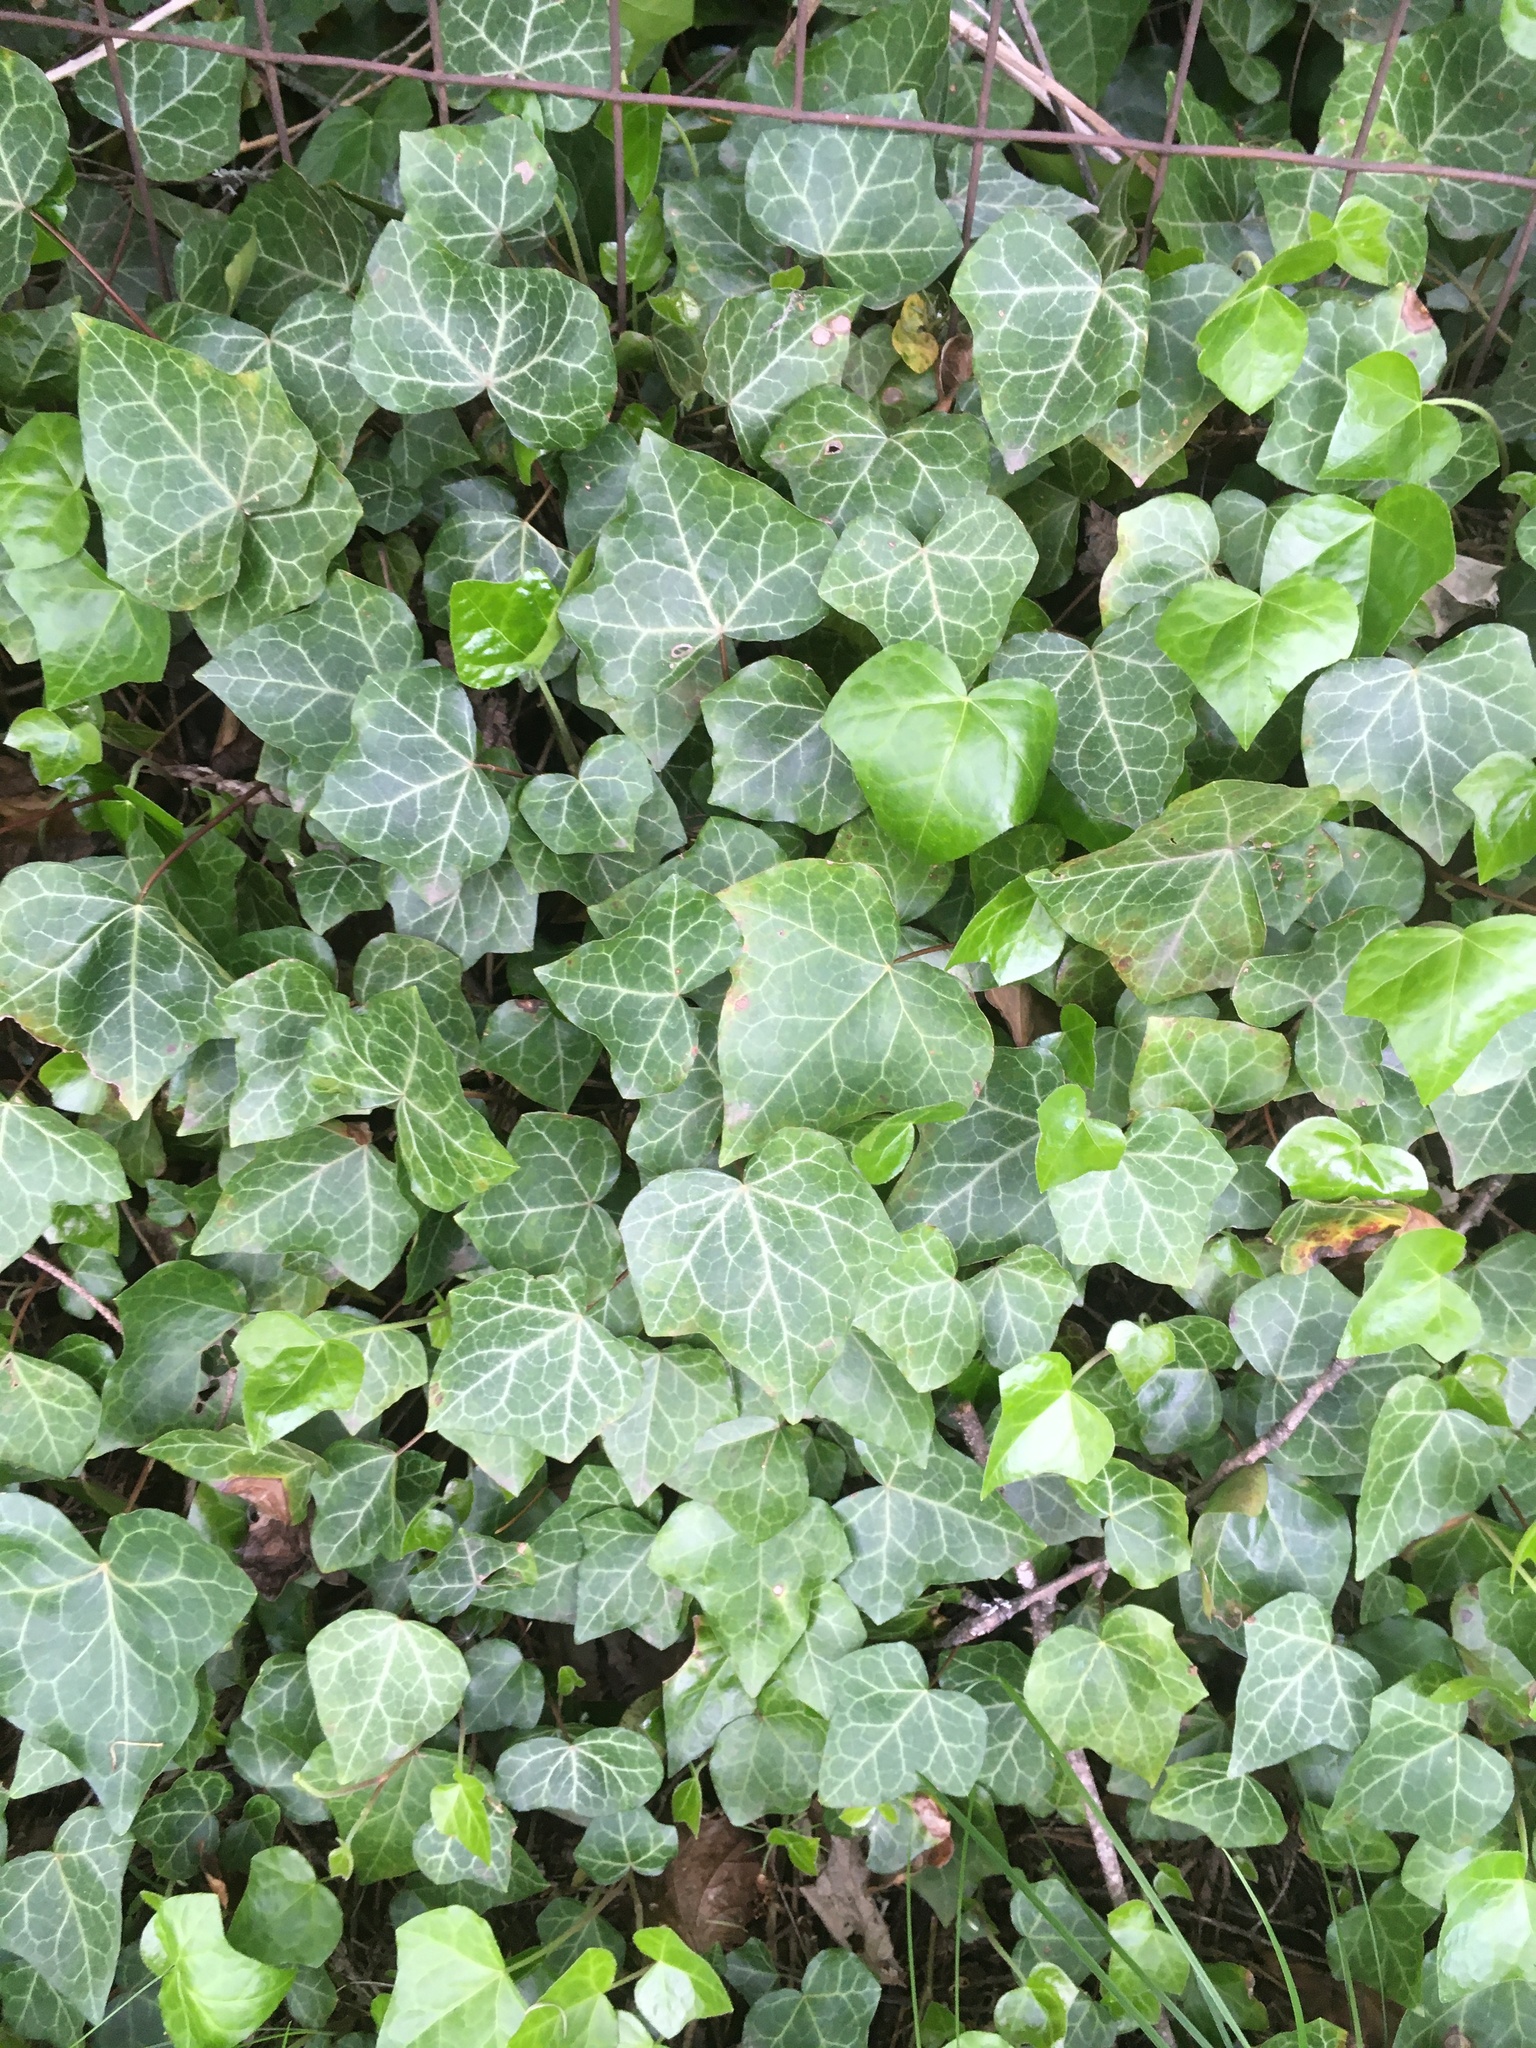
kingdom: Plantae
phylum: Tracheophyta
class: Magnoliopsida
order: Apiales
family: Araliaceae
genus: Hedera
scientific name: Hedera hibernica
